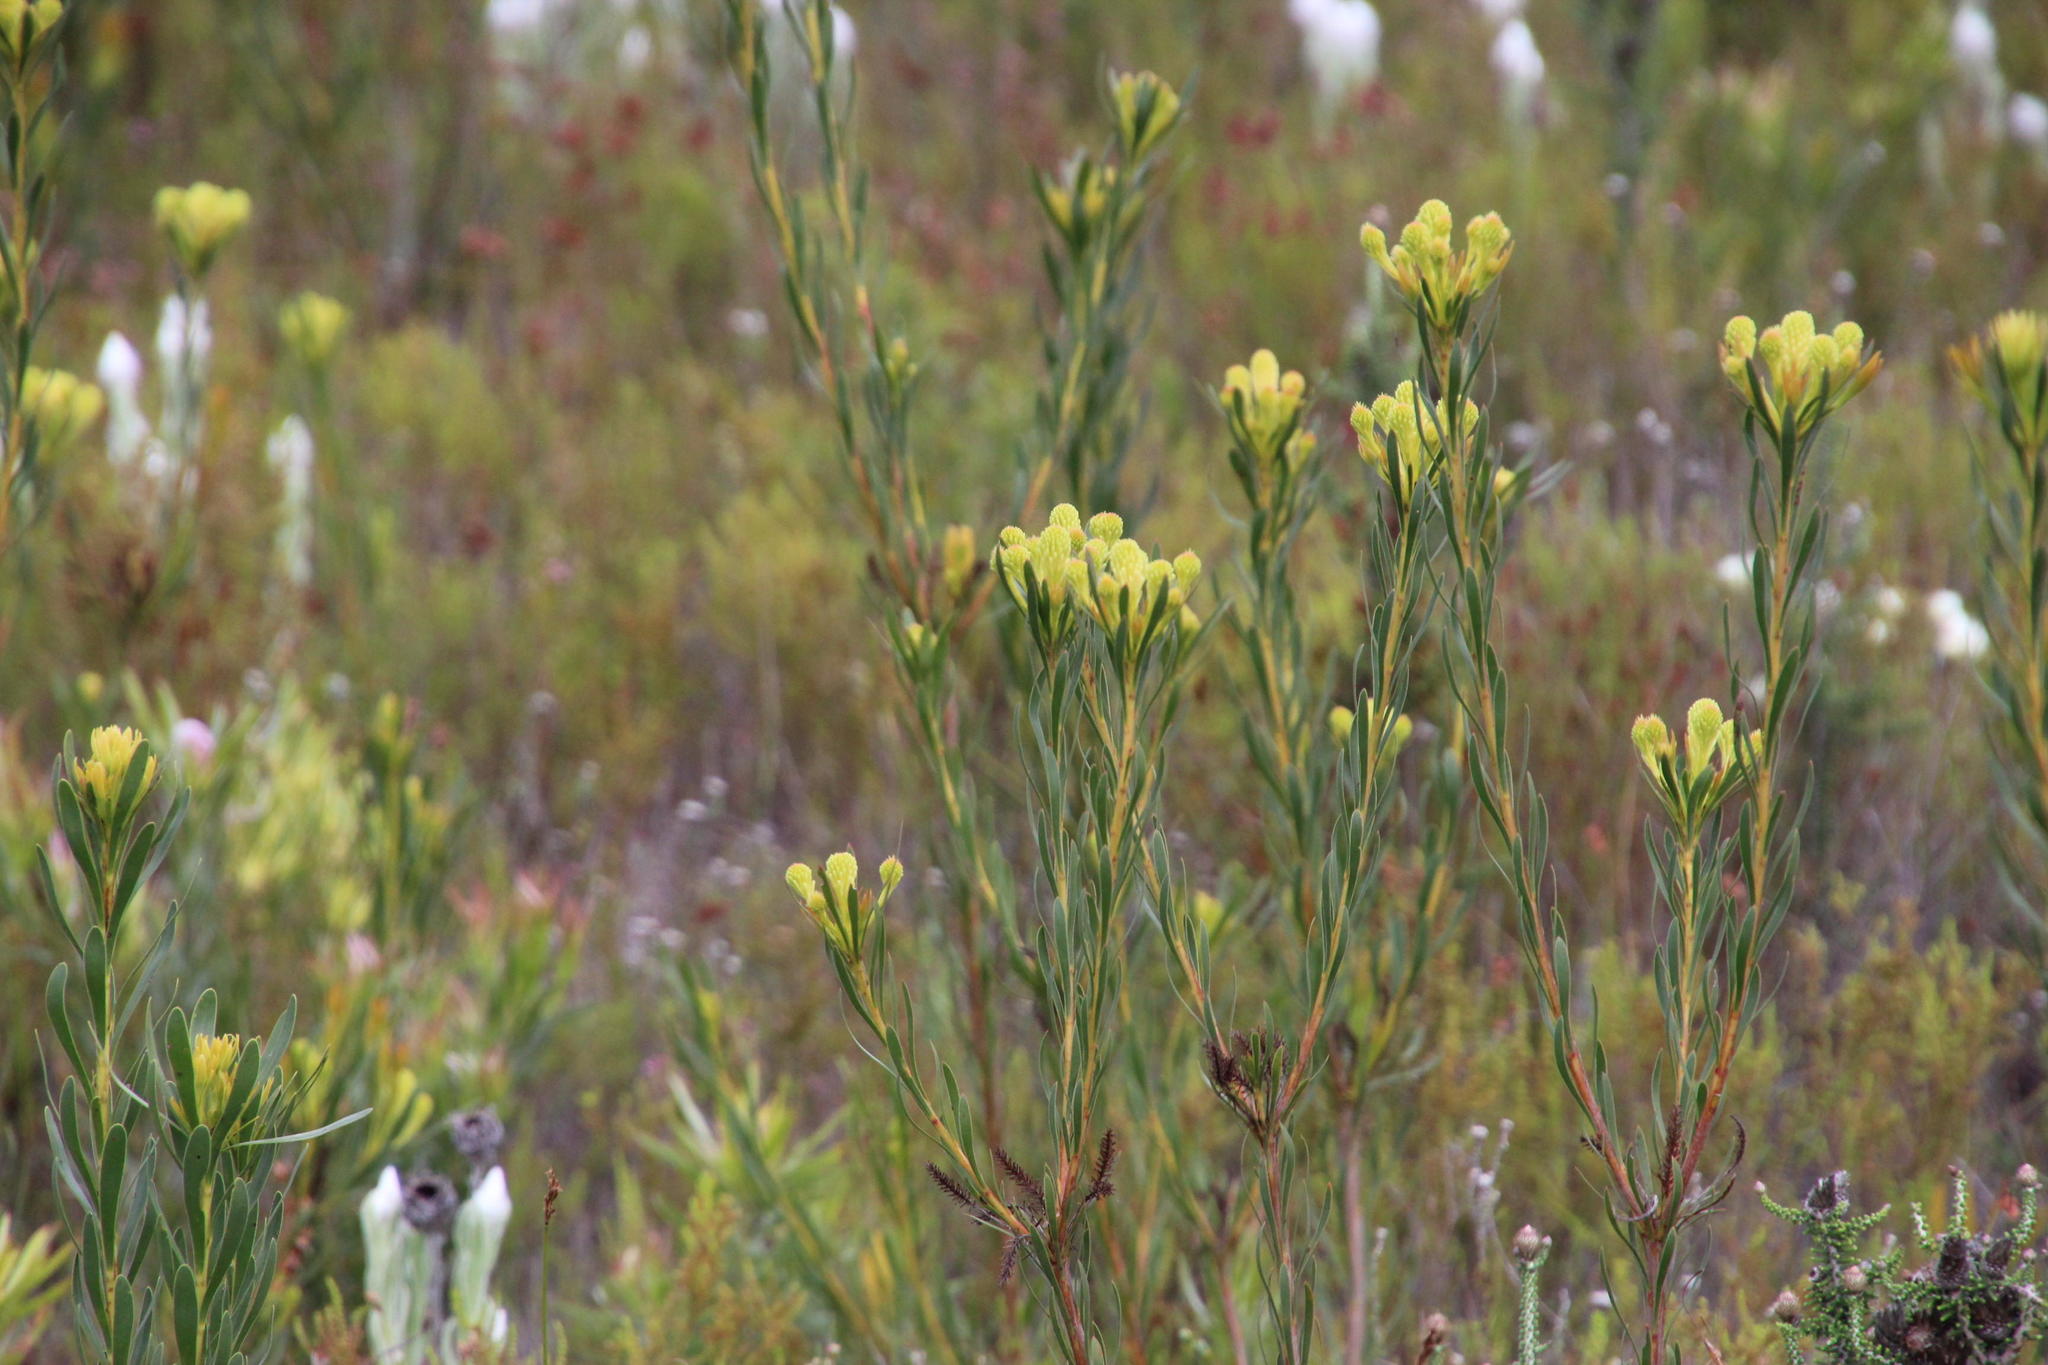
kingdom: Plantae
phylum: Tracheophyta
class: Magnoliopsida
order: Proteales
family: Proteaceae
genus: Aulax
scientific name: Aulax umbellata
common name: Broad-leaf featherbush
